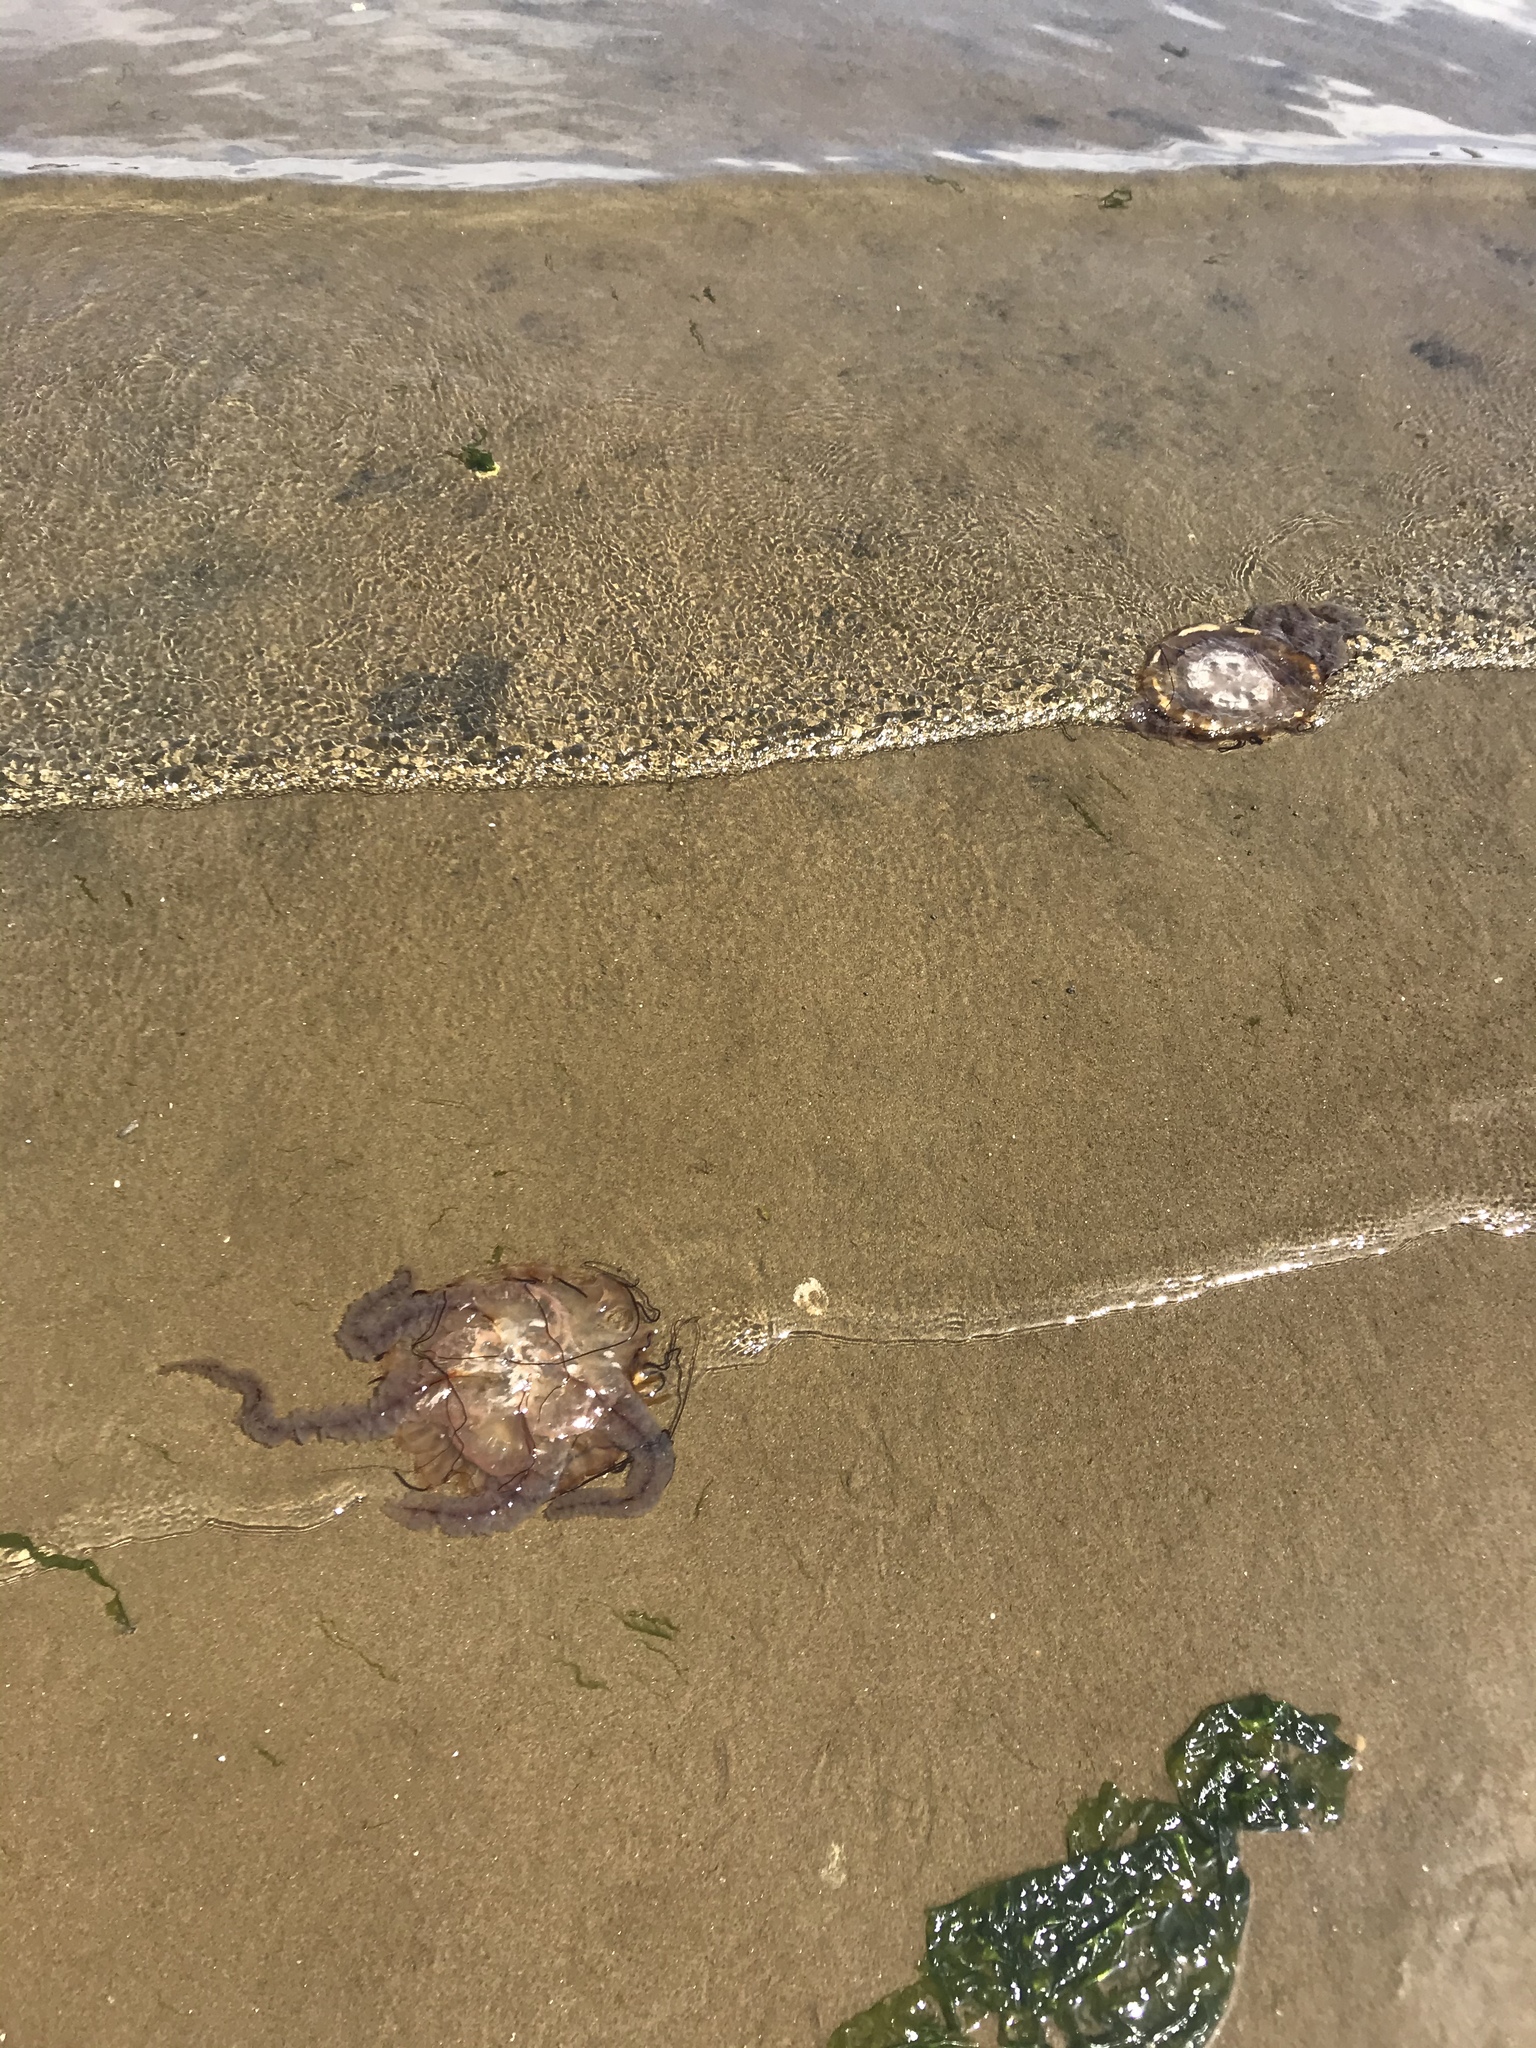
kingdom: Animalia
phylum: Cnidaria
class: Scyphozoa
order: Semaeostomeae
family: Pelagiidae
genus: Chrysaora
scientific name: Chrysaora fuscescens
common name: Sea nettle
